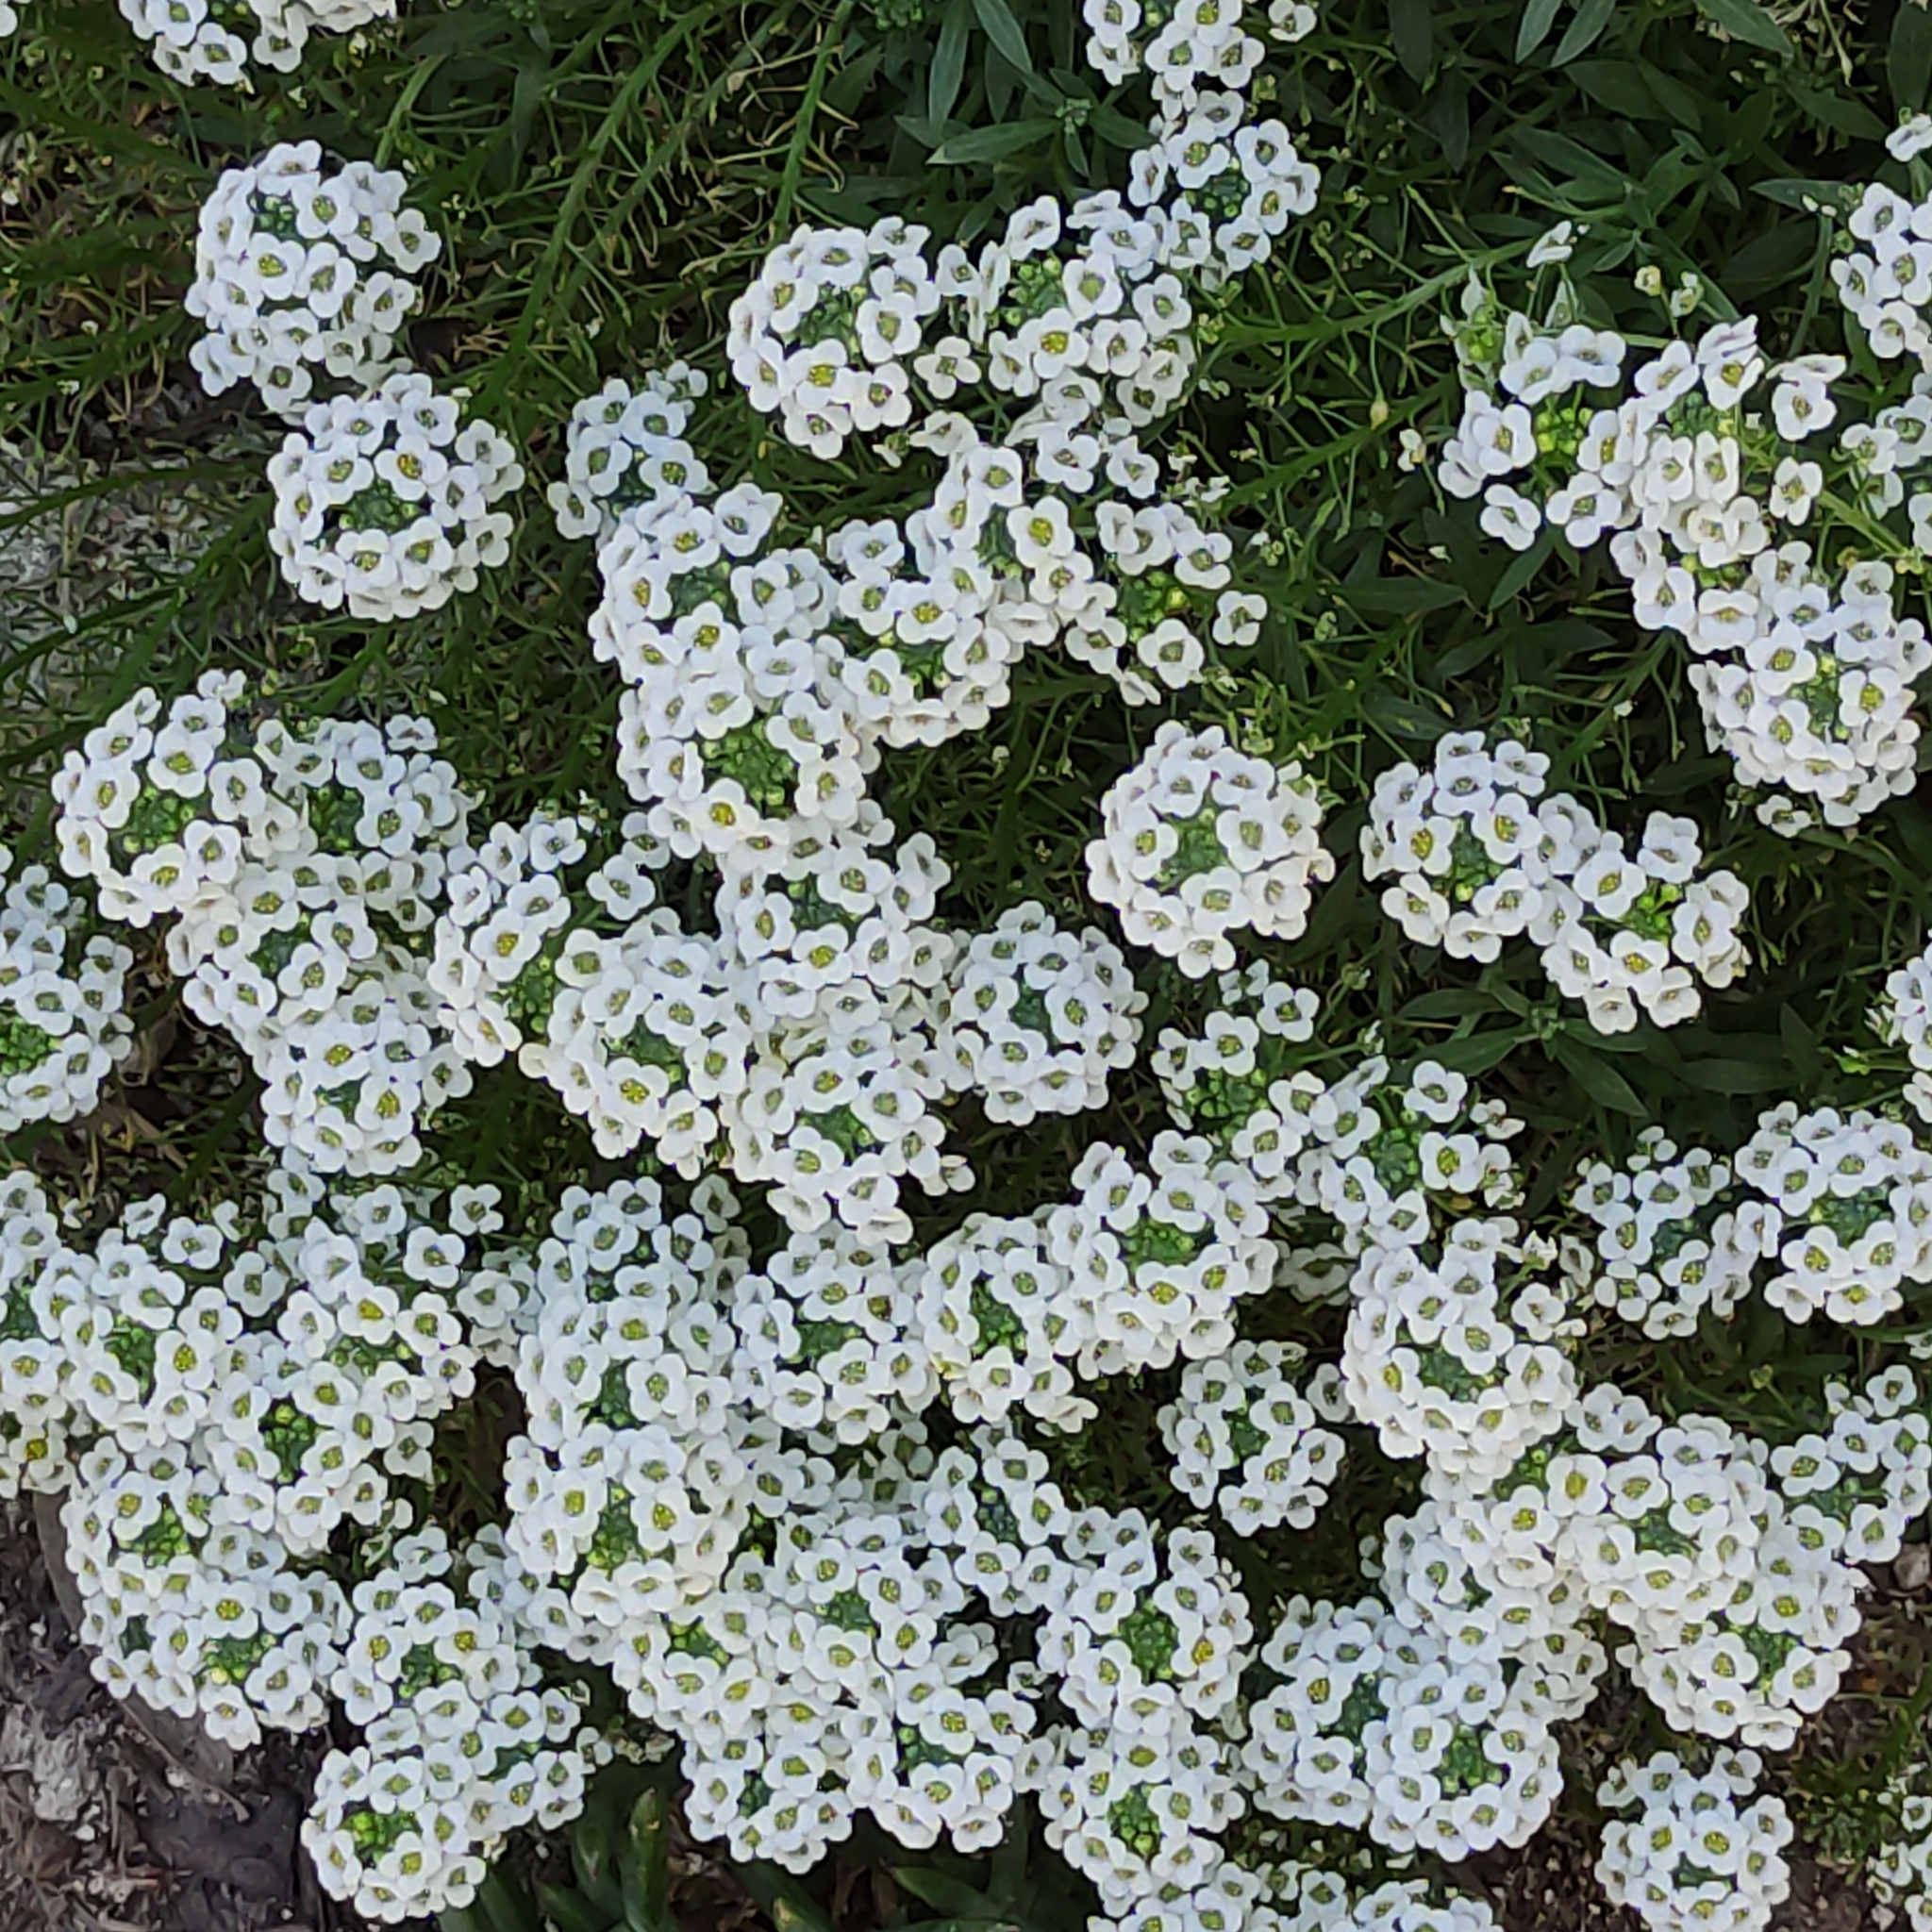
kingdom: Plantae
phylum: Tracheophyta
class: Magnoliopsida
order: Brassicales
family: Brassicaceae
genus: Lobularia
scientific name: Lobularia maritima
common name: Sweet alison
